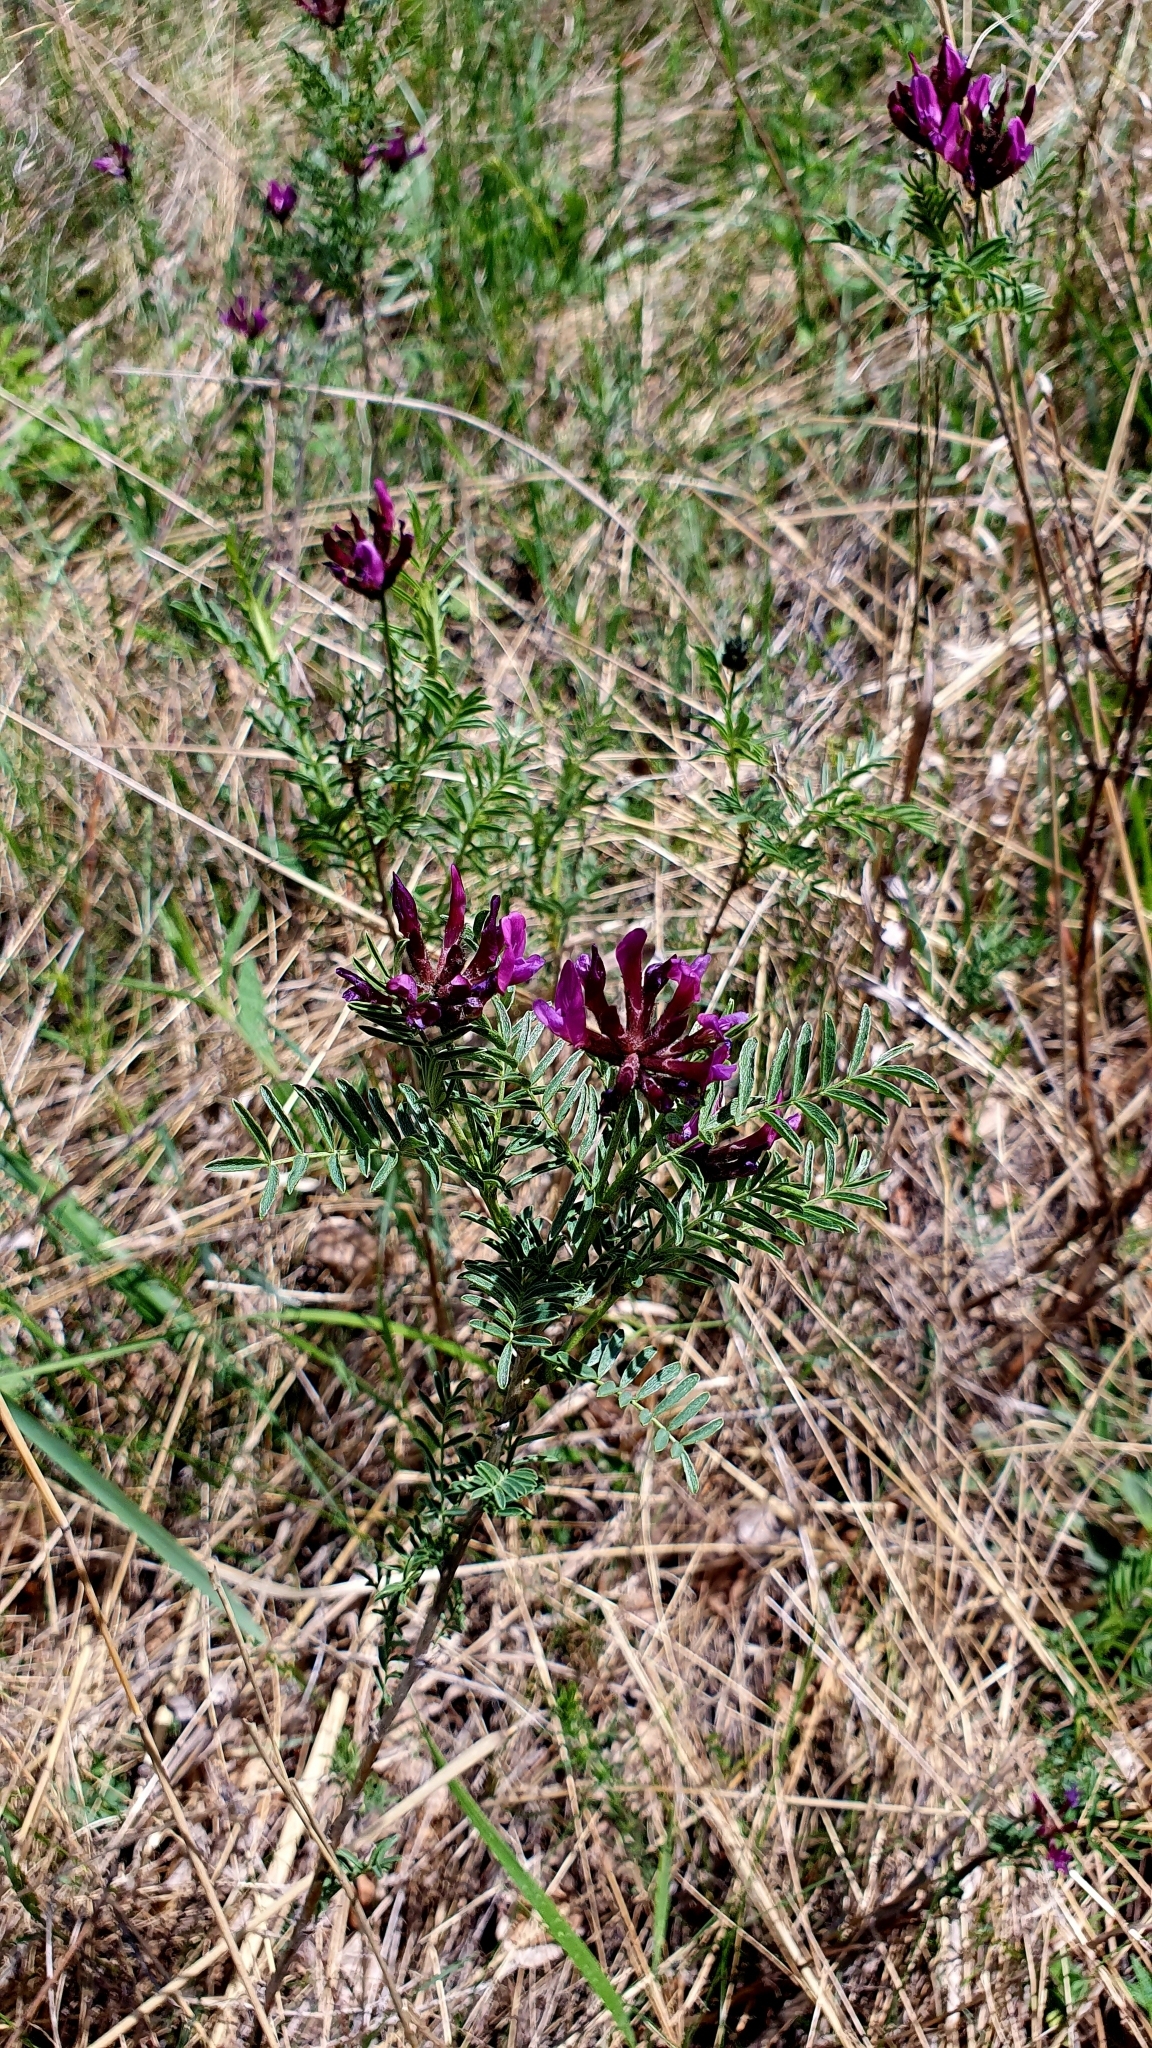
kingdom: Plantae
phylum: Tracheophyta
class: Magnoliopsida
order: Fabales
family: Fabaceae
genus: Astragalus
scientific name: Astragalus cornutus
